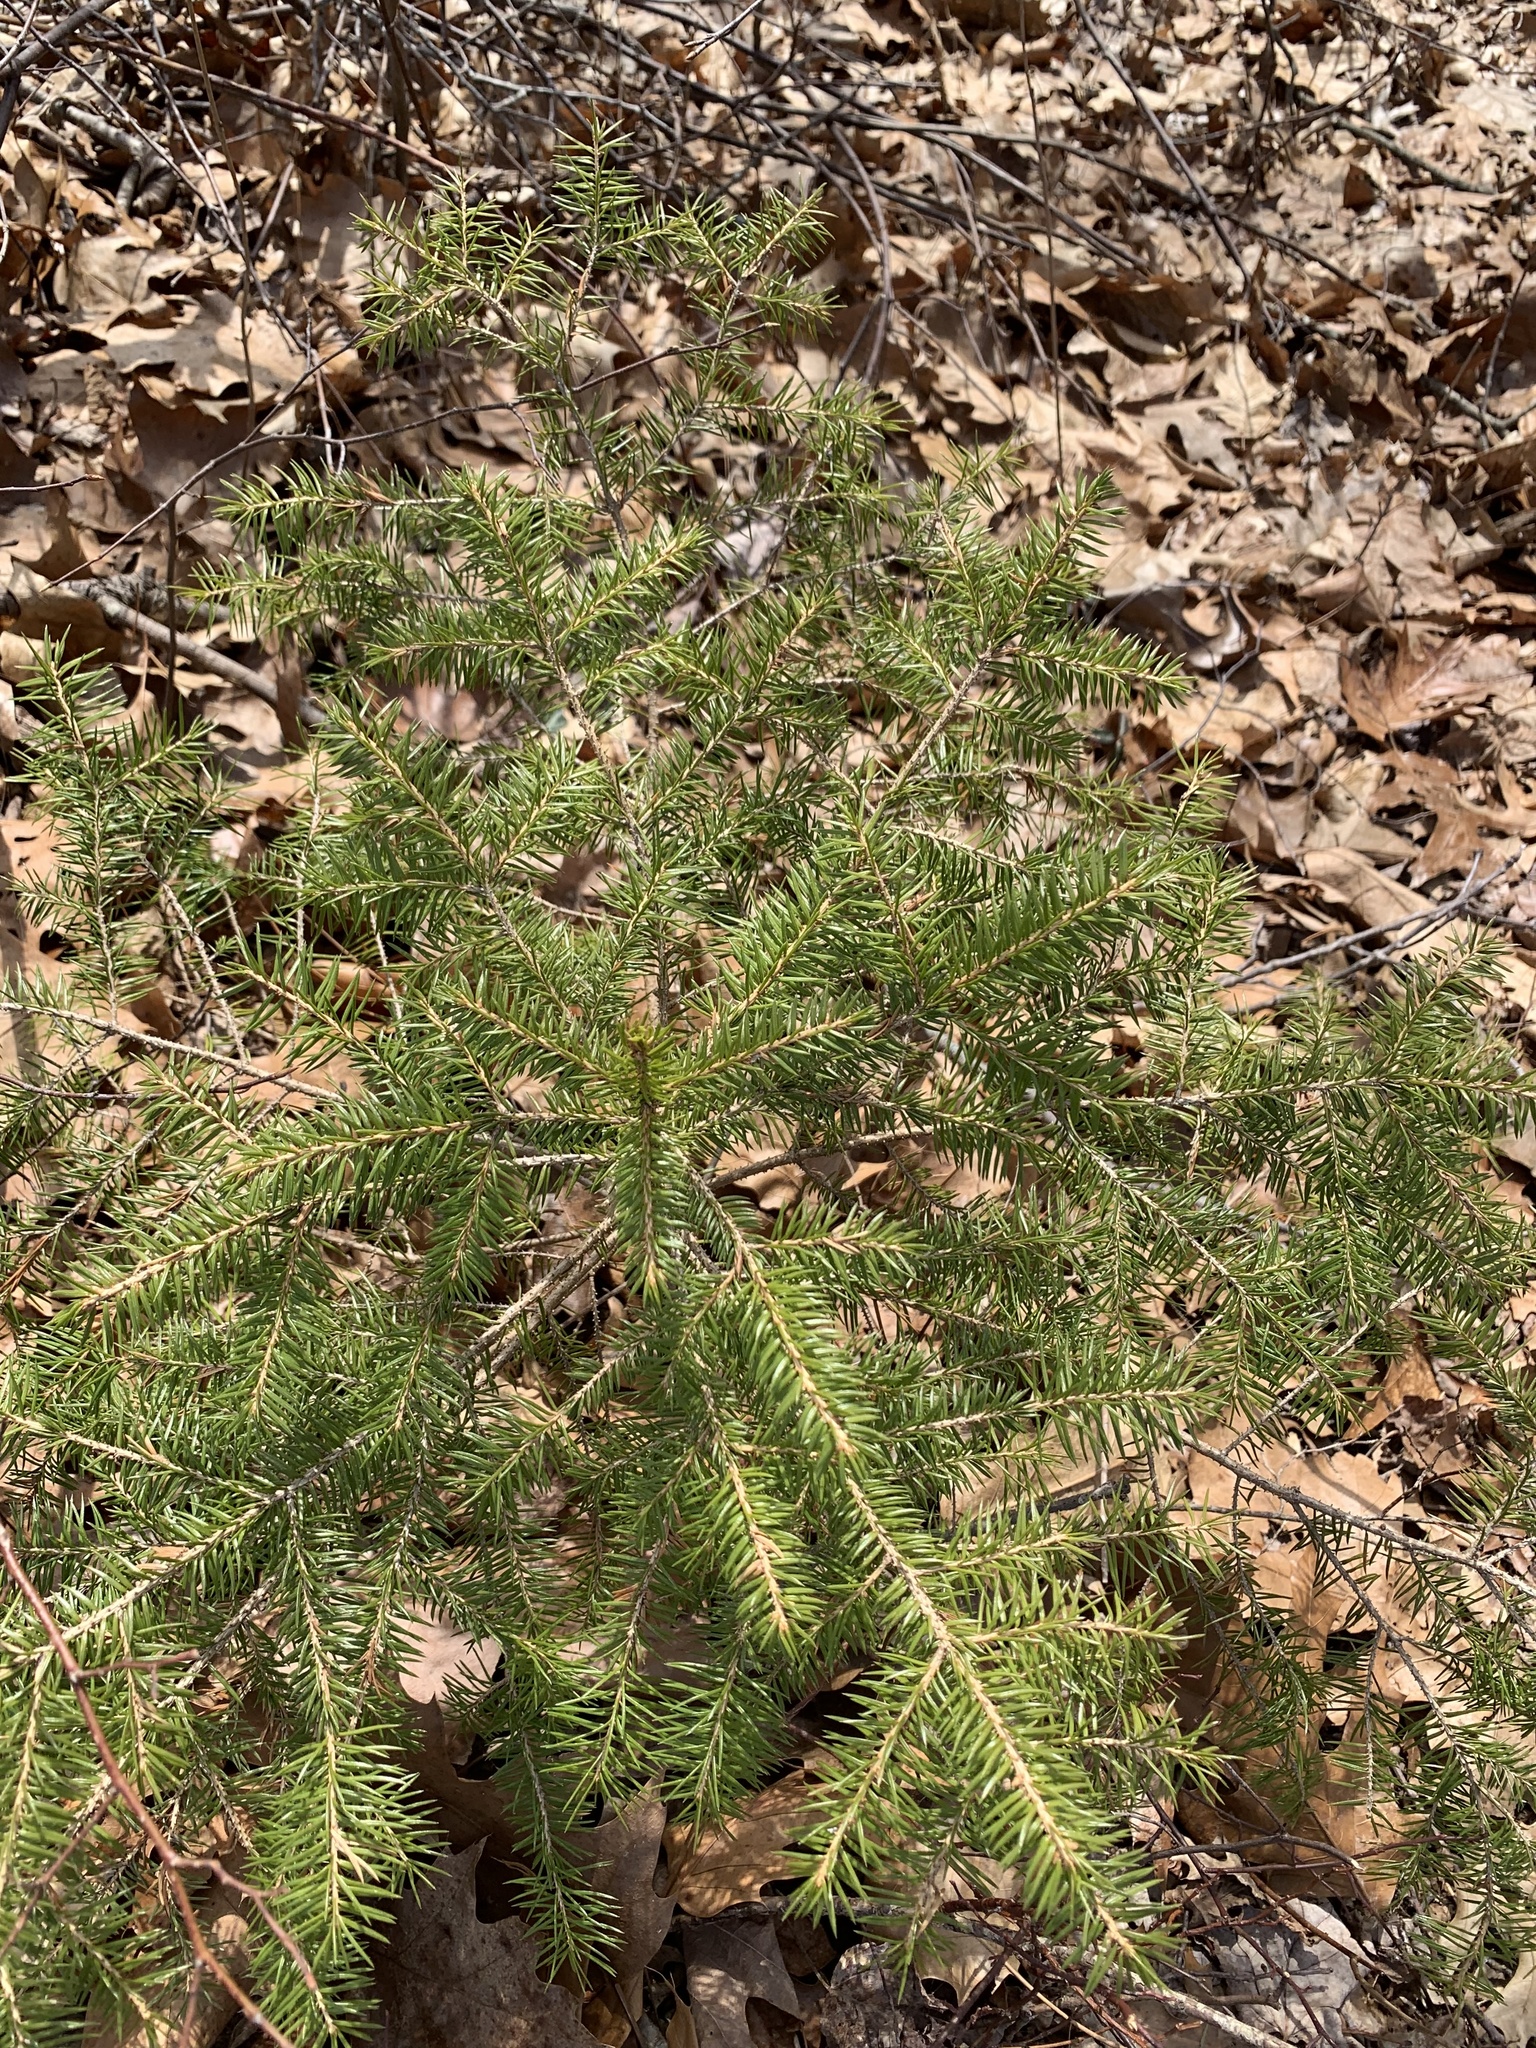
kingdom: Plantae
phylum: Tracheophyta
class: Pinopsida
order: Pinales
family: Pinaceae
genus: Picea
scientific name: Picea abies
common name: Norway spruce
